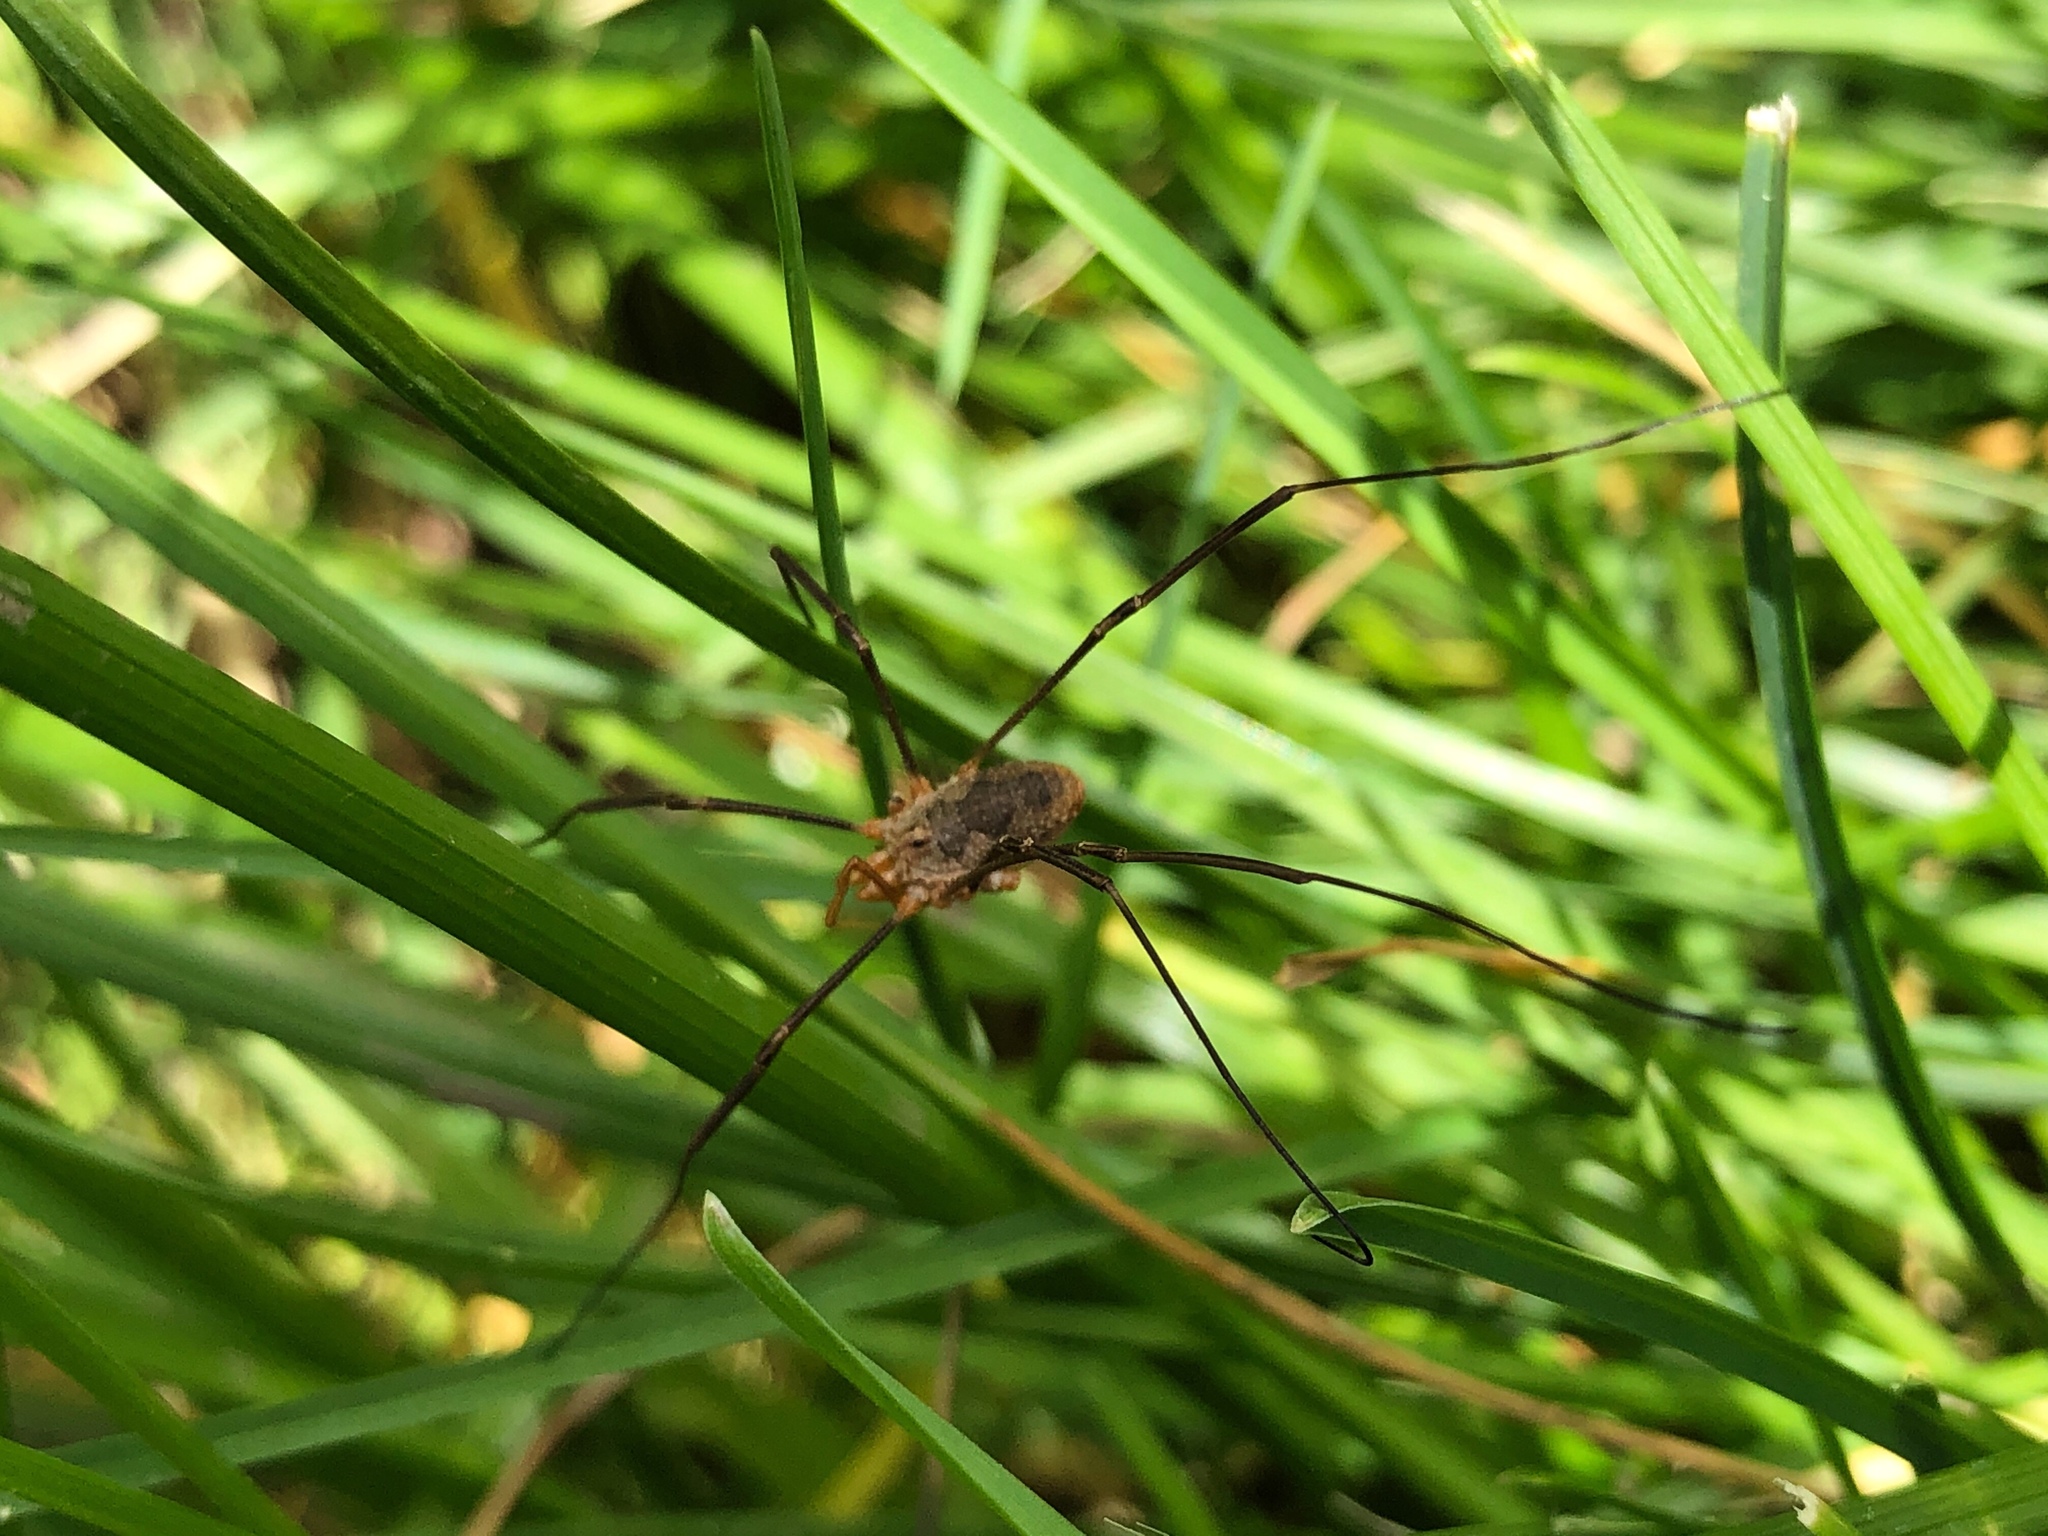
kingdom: Animalia
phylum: Arthropoda
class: Arachnida
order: Opiliones
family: Phalangiidae
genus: Phalangium
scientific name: Phalangium opilio
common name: Daddy longleg
